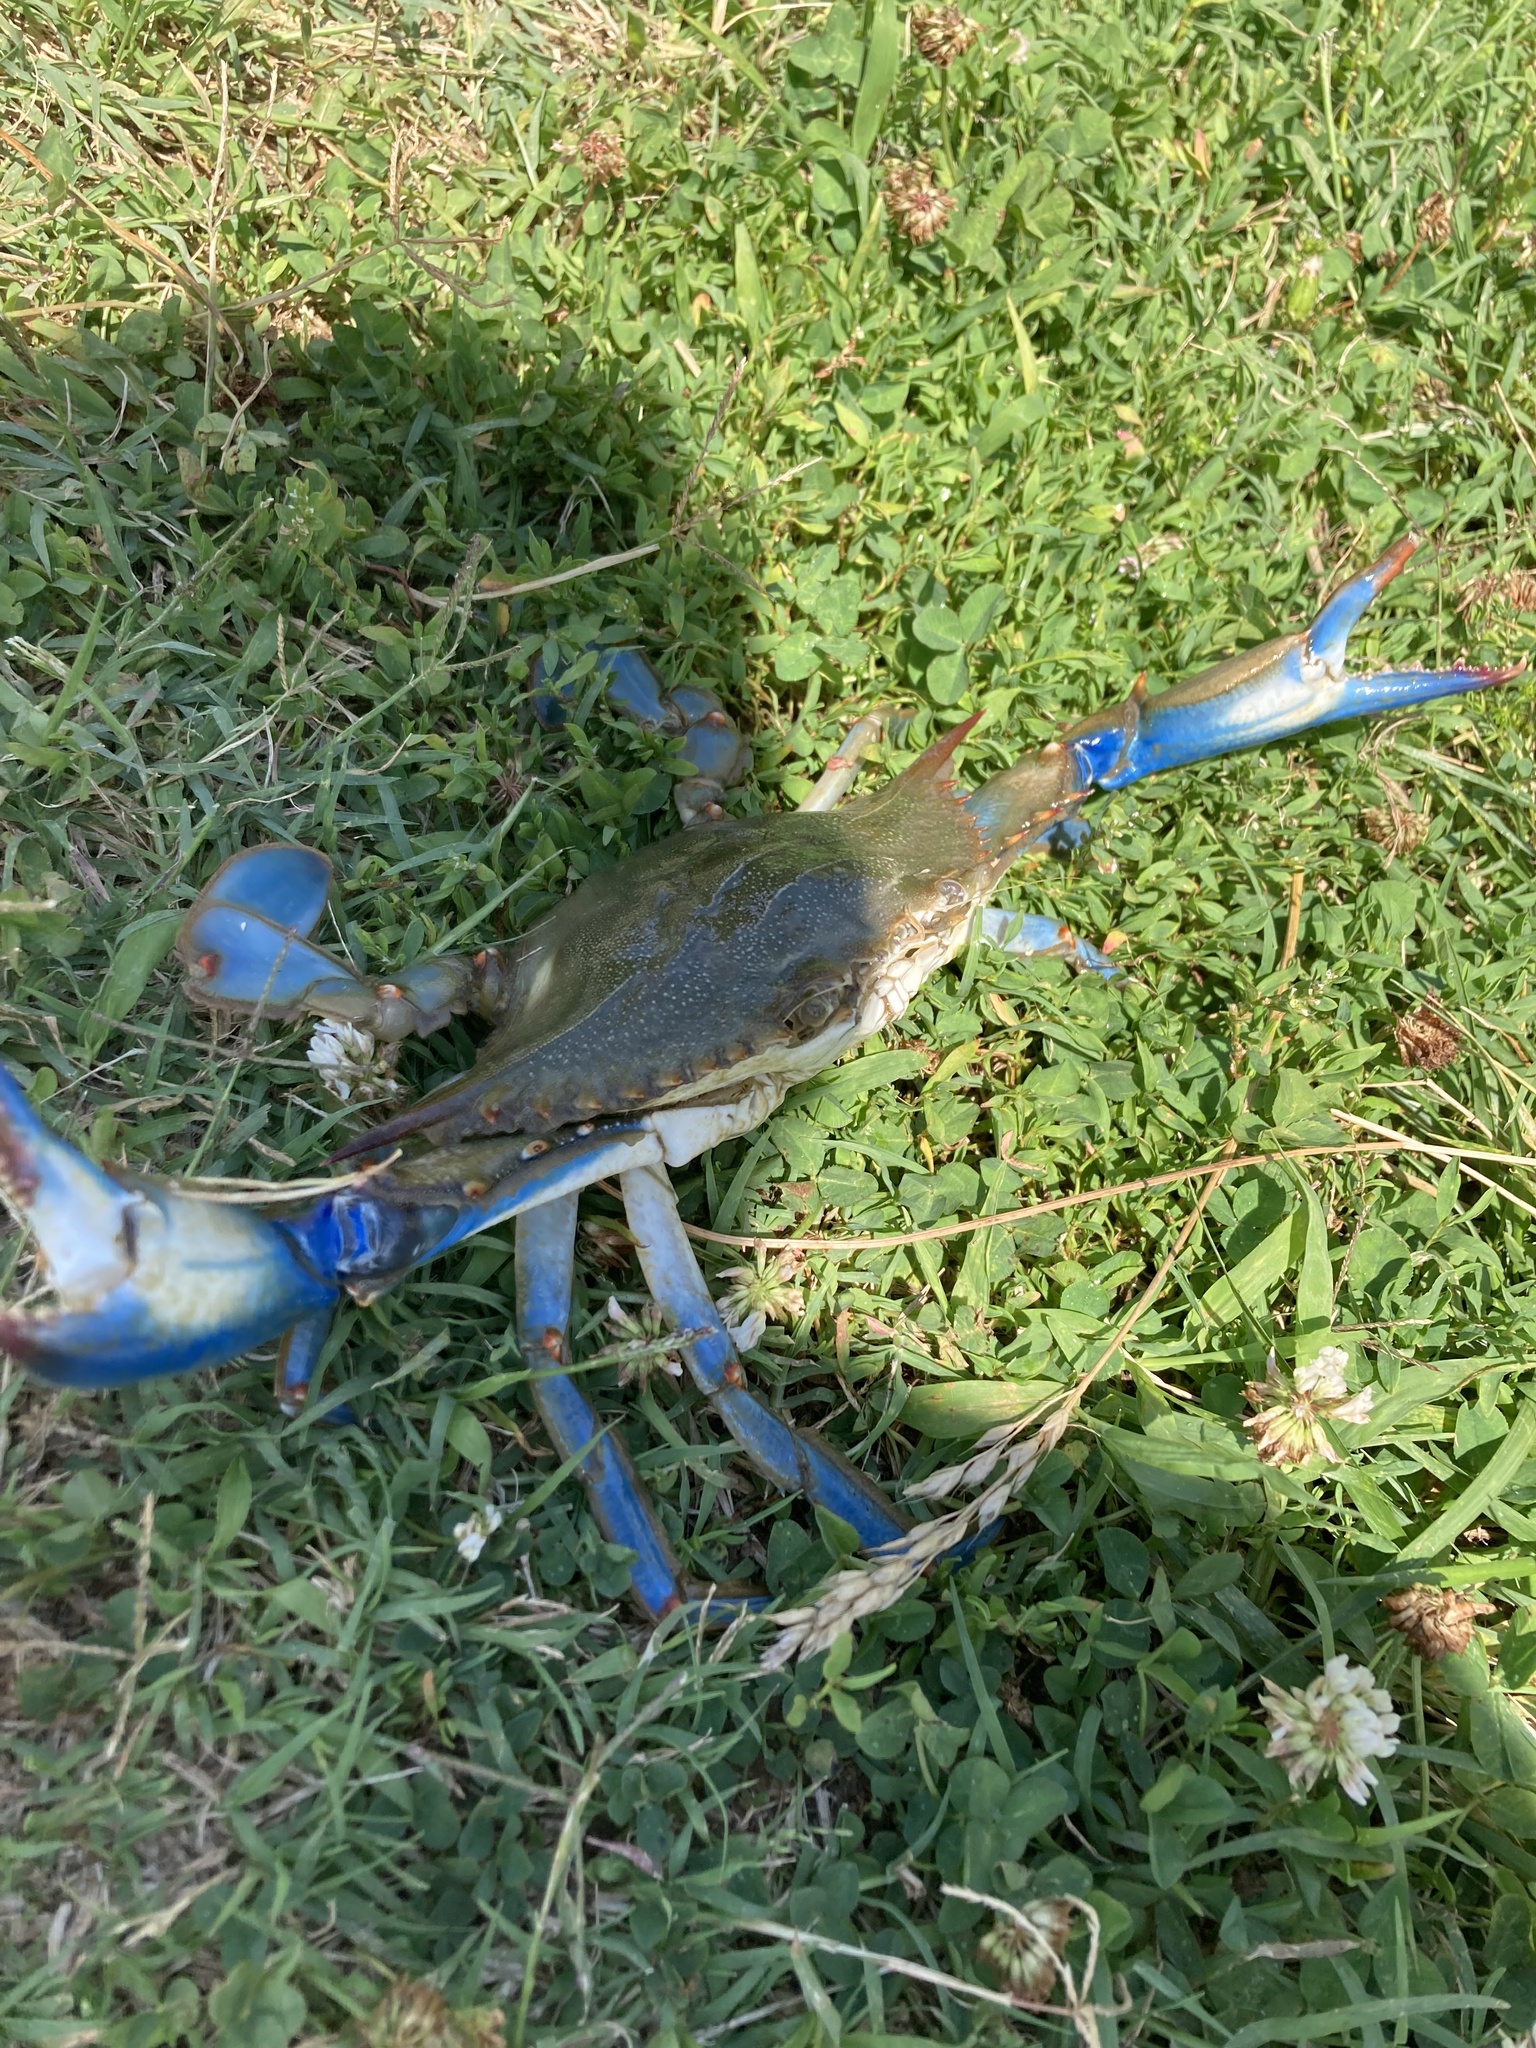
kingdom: Animalia
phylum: Arthropoda
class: Malacostraca
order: Decapoda
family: Portunidae
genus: Callinectes
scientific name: Callinectes sapidus
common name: Blue crab
